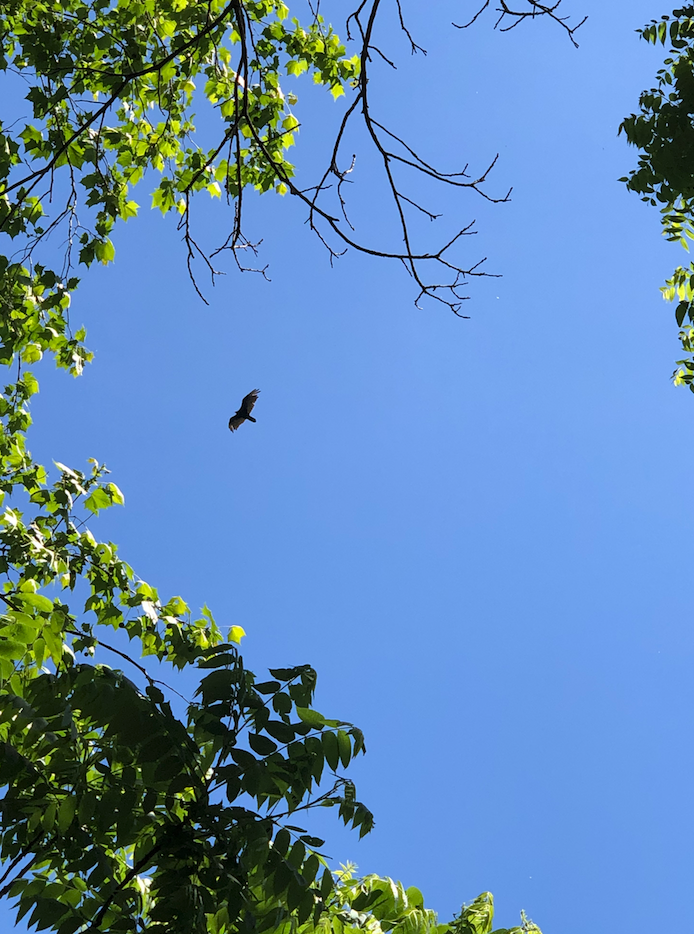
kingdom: Animalia
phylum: Chordata
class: Aves
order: Accipitriformes
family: Cathartidae
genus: Cathartes
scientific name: Cathartes aura
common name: Turkey vulture
